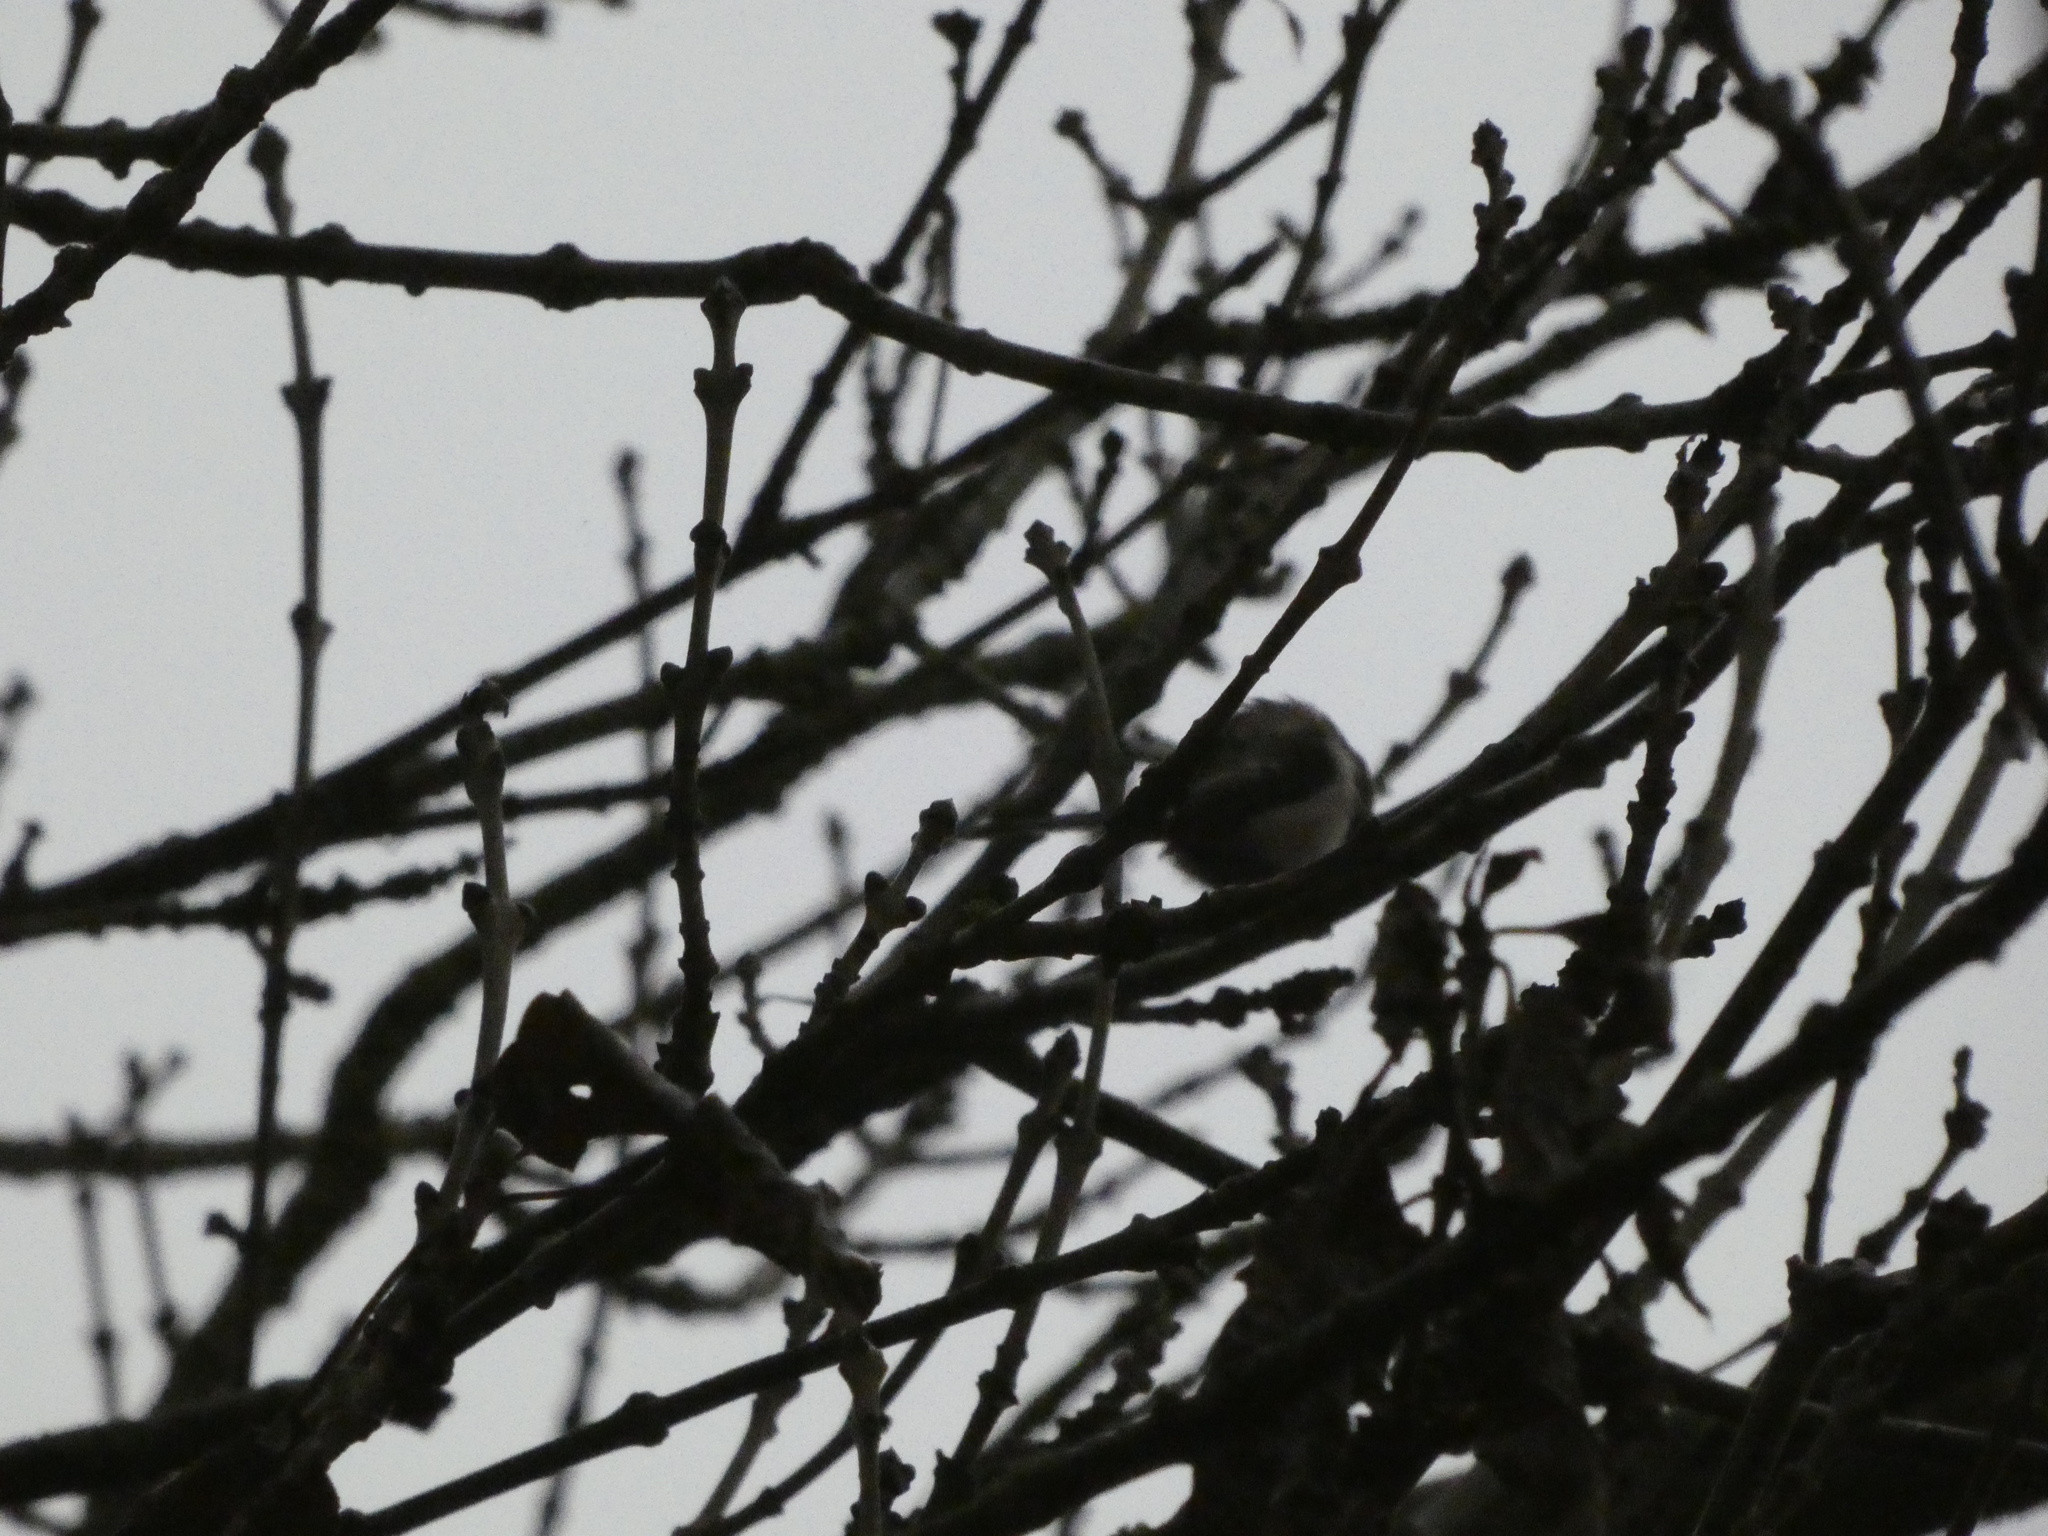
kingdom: Animalia
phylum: Chordata
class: Aves
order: Passeriformes
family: Aegithalidae
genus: Aegithalos
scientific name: Aegithalos caudatus
